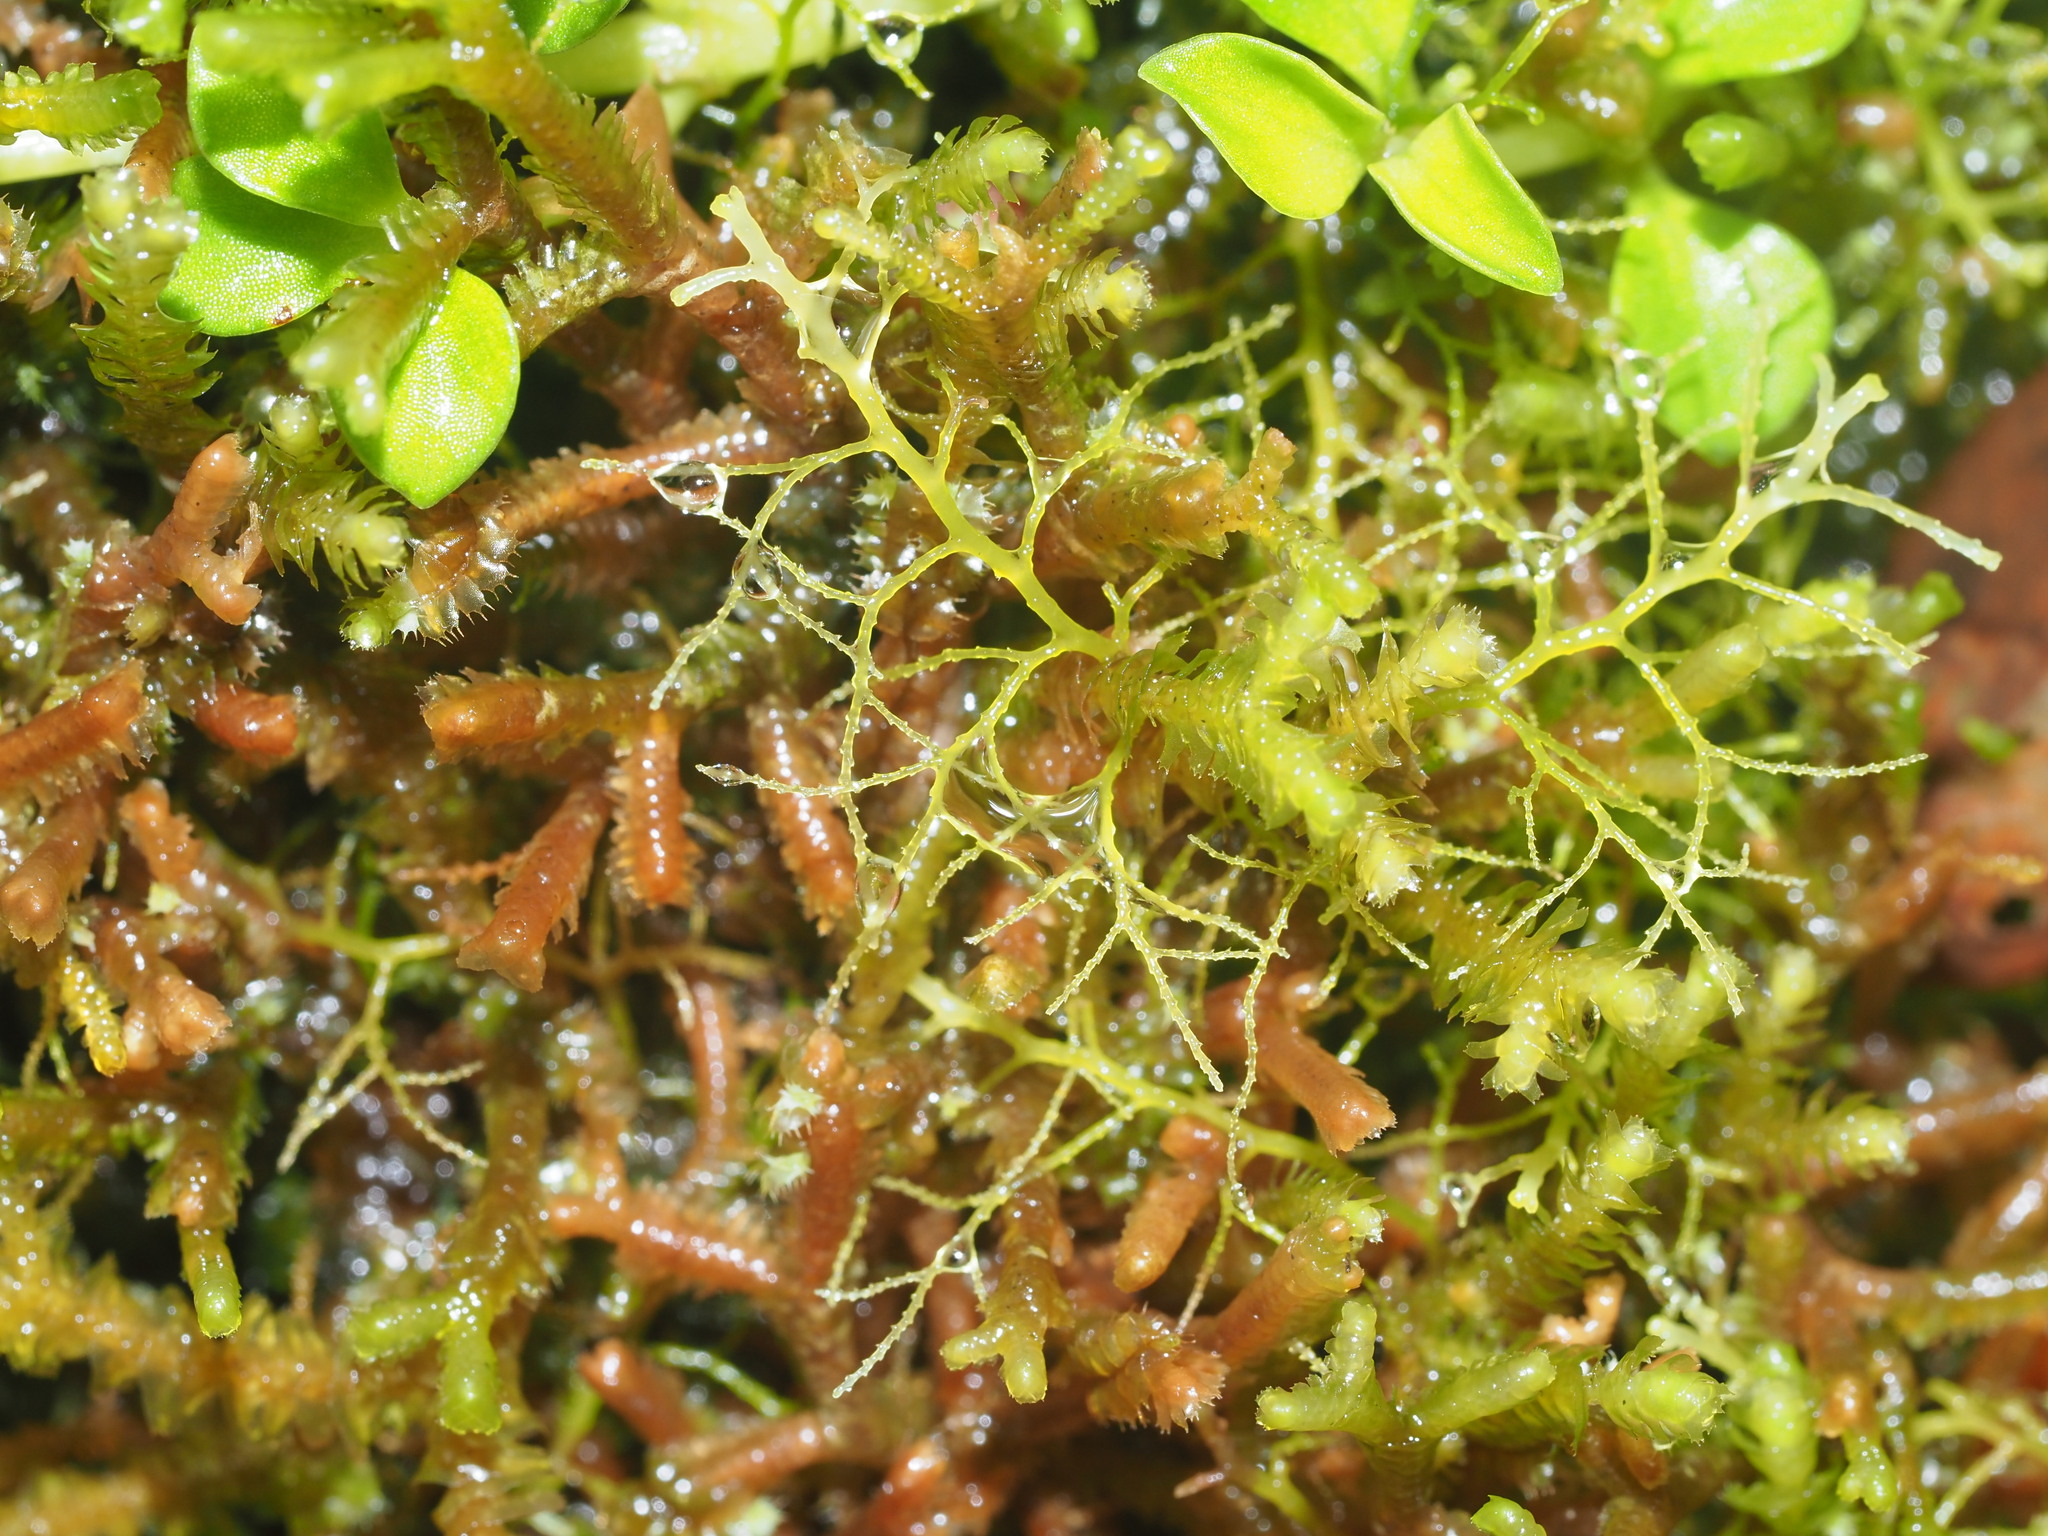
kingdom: Plantae
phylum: Marchantiophyta
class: Jungermanniopsida
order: Jungermanniales
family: Lepidoziaceae
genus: Lepidozia
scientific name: Lepidozia sandvicensis
